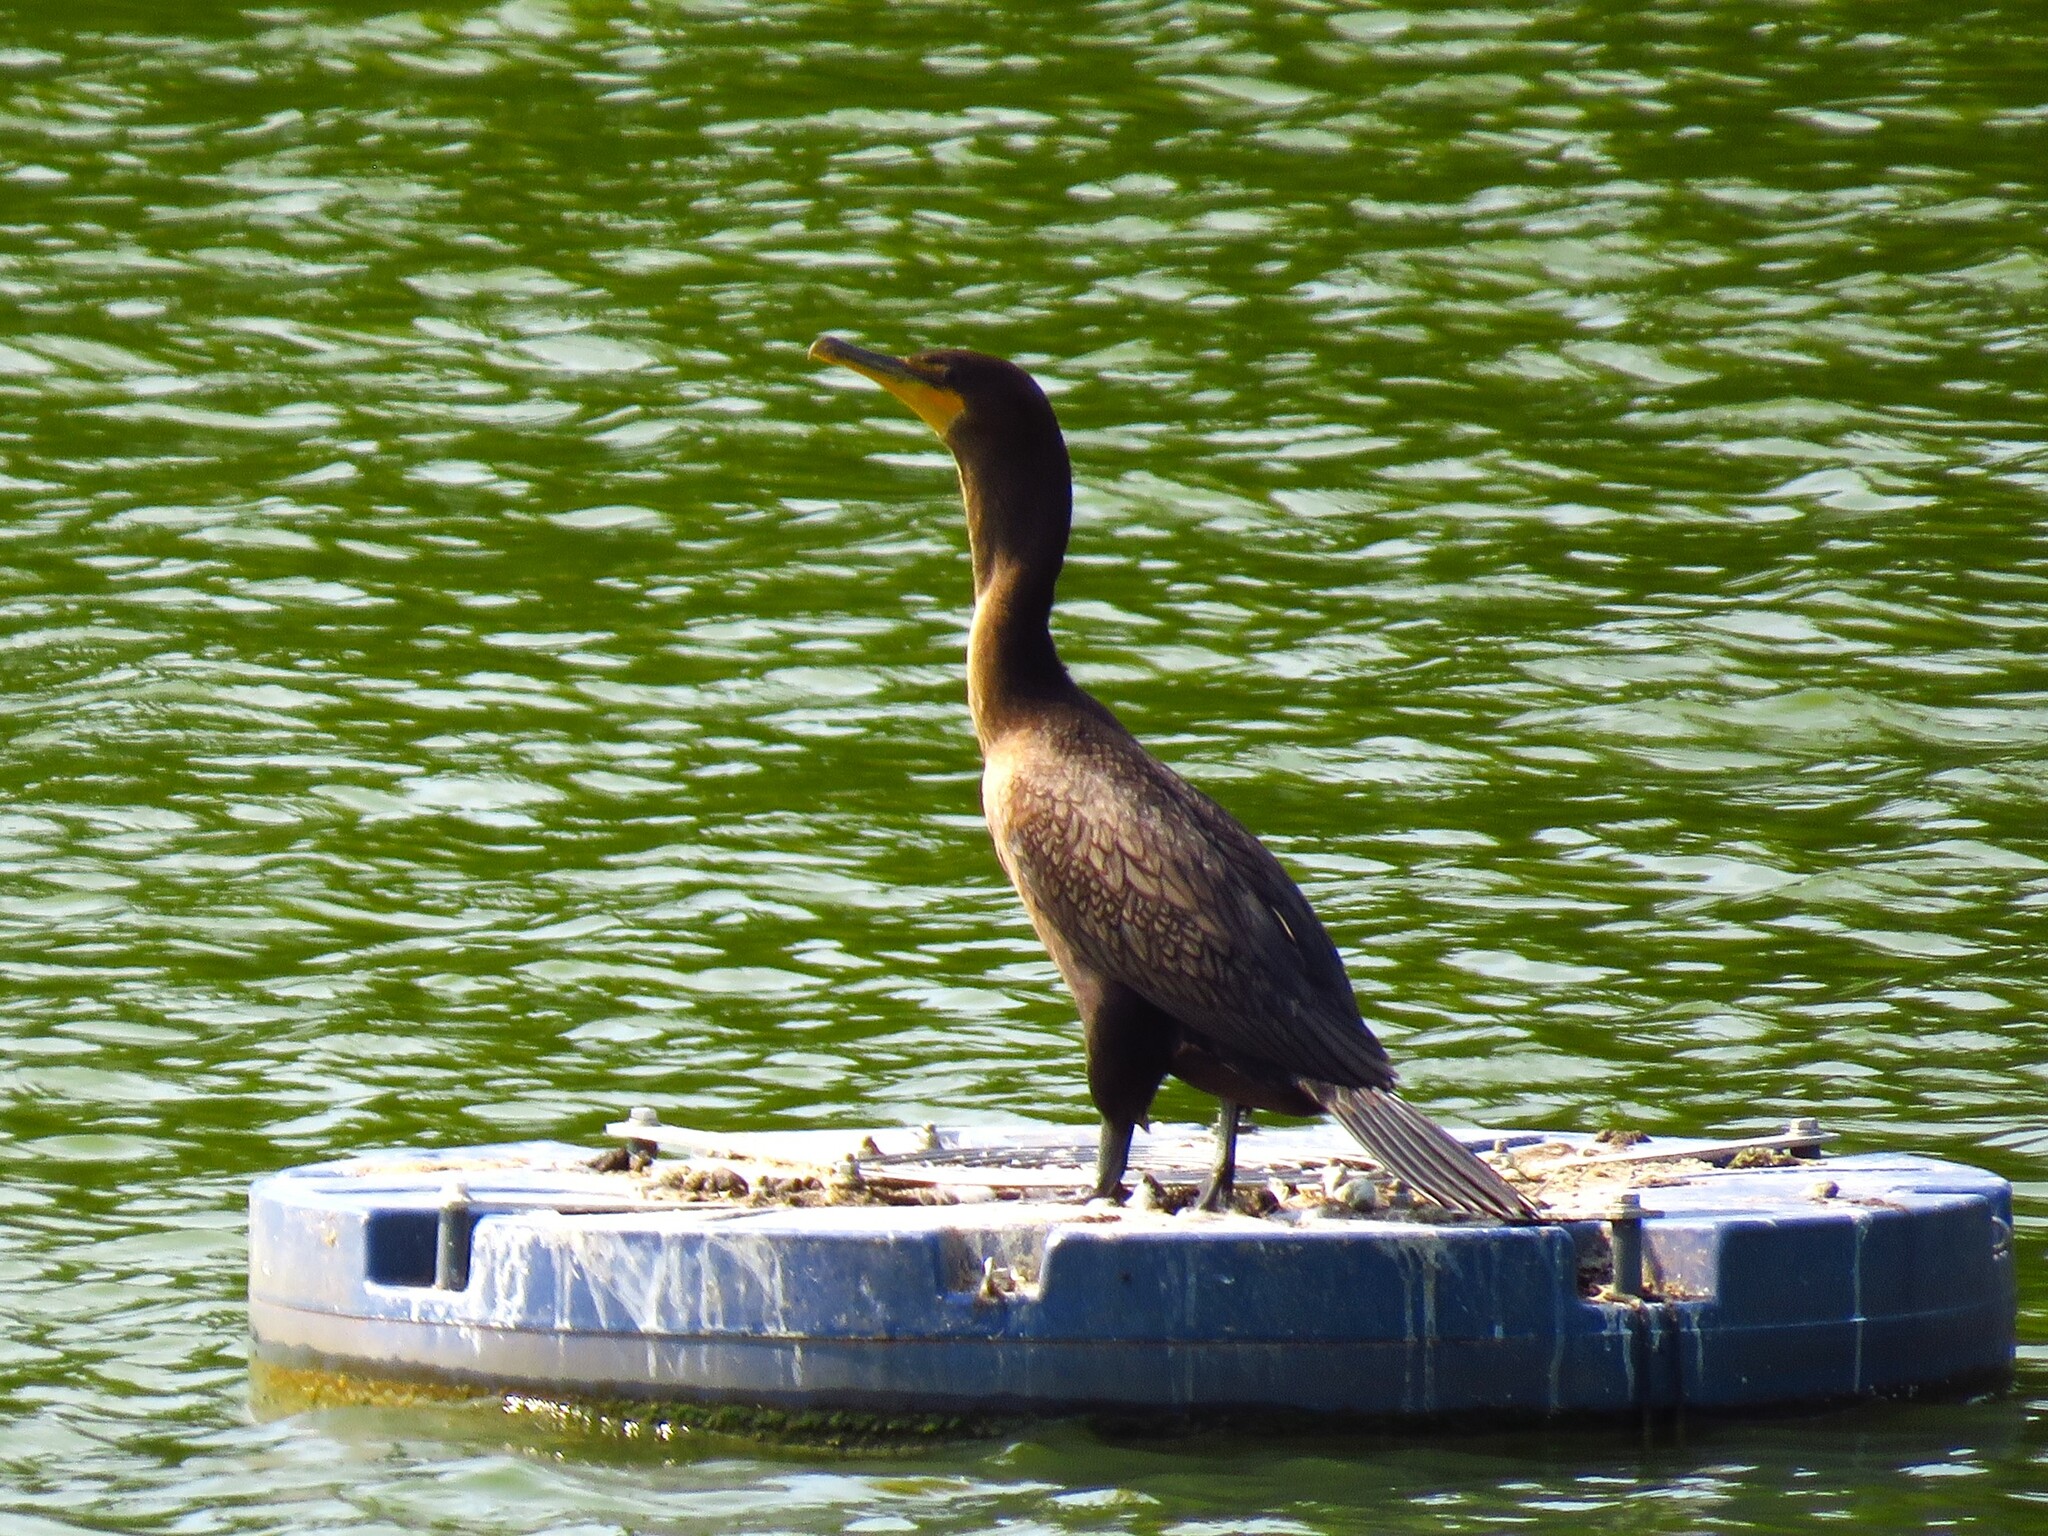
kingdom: Animalia
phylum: Chordata
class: Aves
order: Suliformes
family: Phalacrocoracidae
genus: Phalacrocorax
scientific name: Phalacrocorax auritus
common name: Double-crested cormorant
